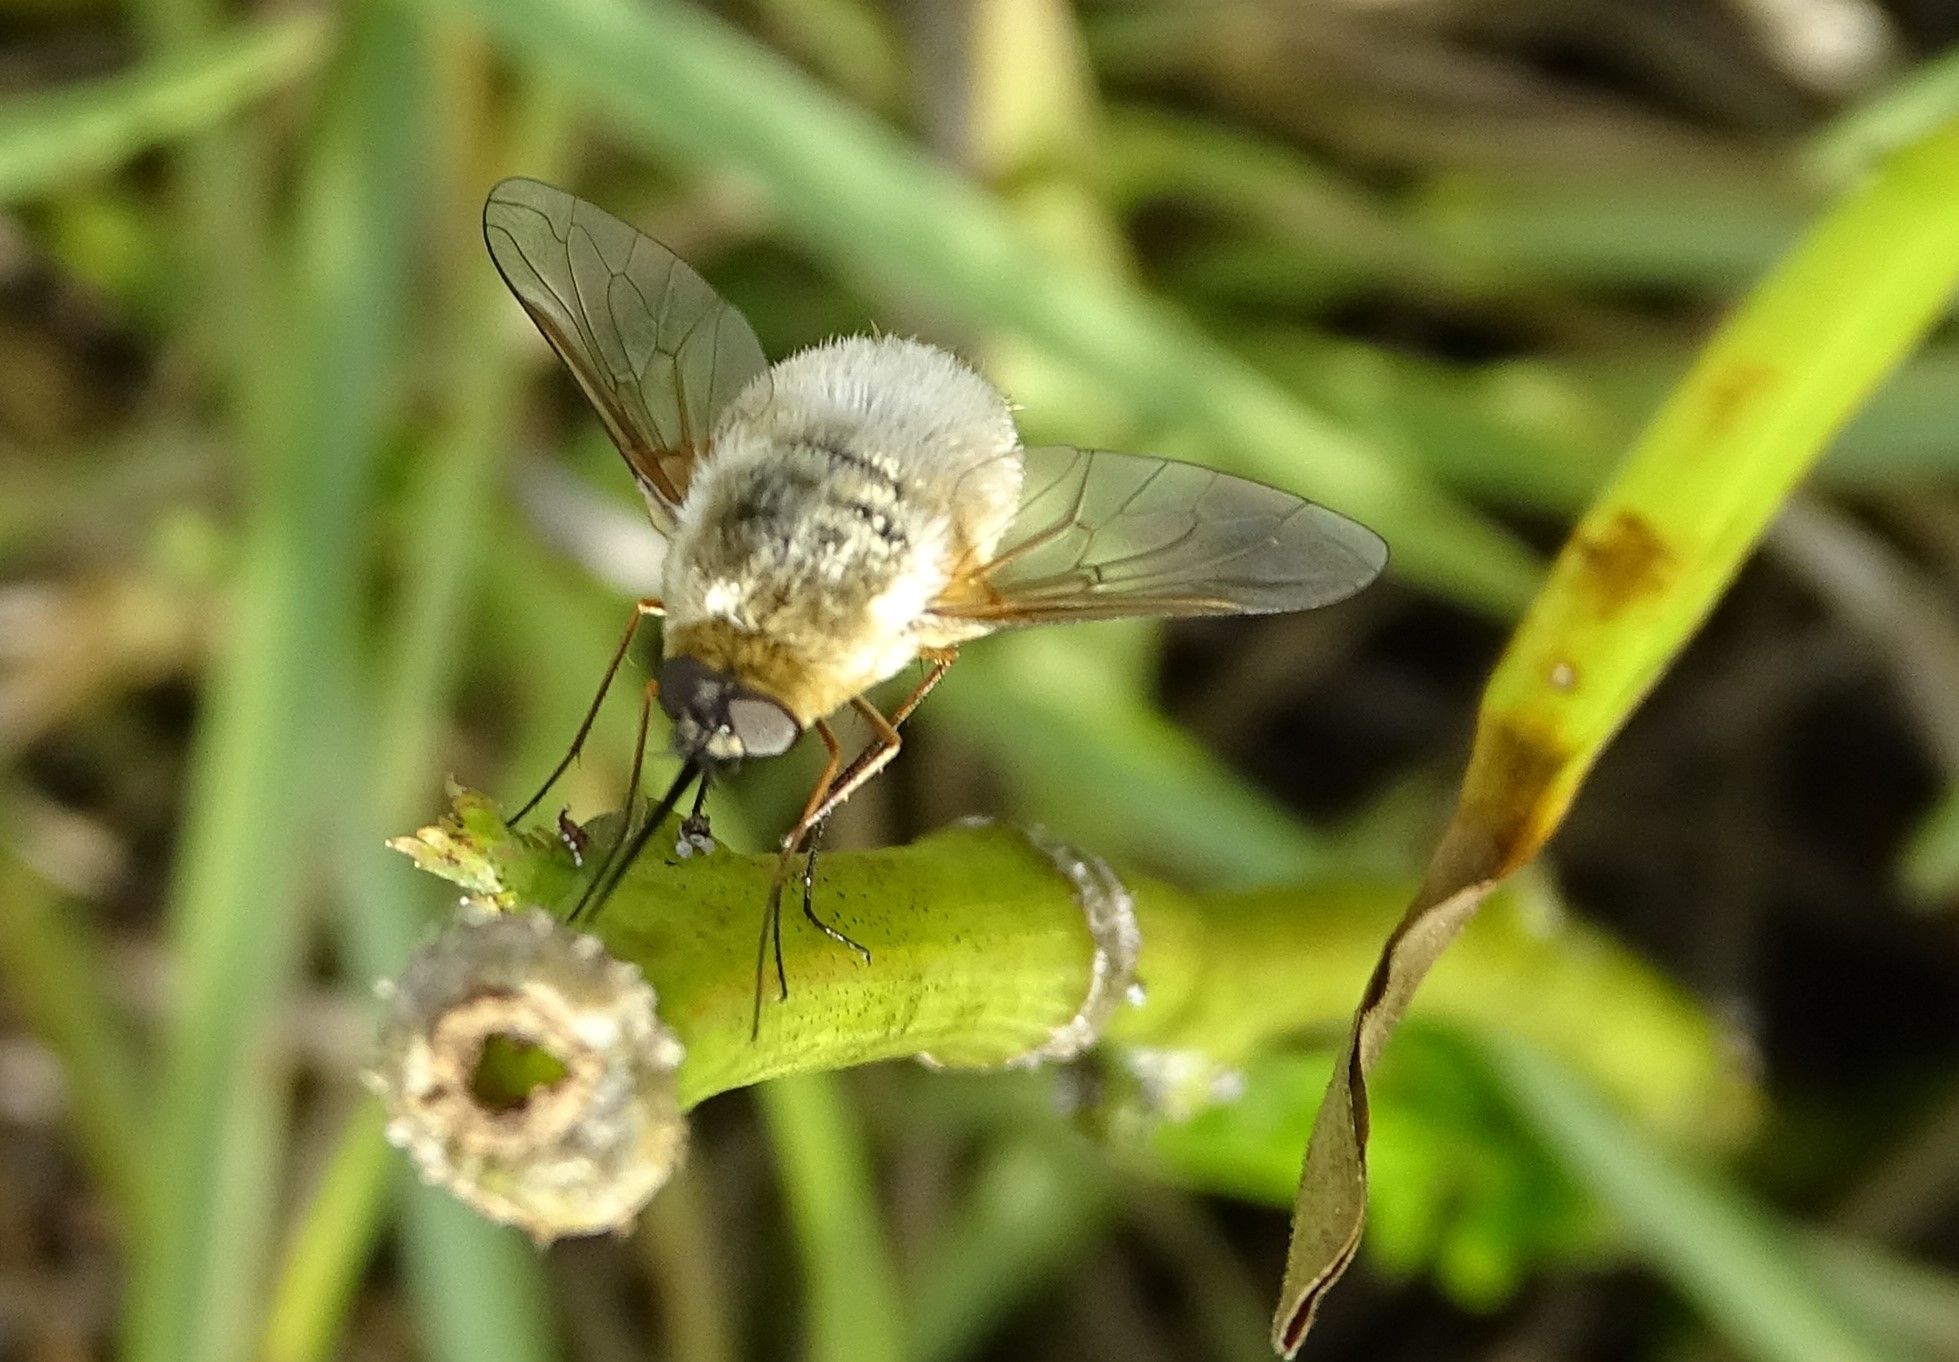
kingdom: Animalia
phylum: Arthropoda
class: Insecta
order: Diptera
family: Bombyliidae
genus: Systoechus
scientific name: Systoechus candidulus
